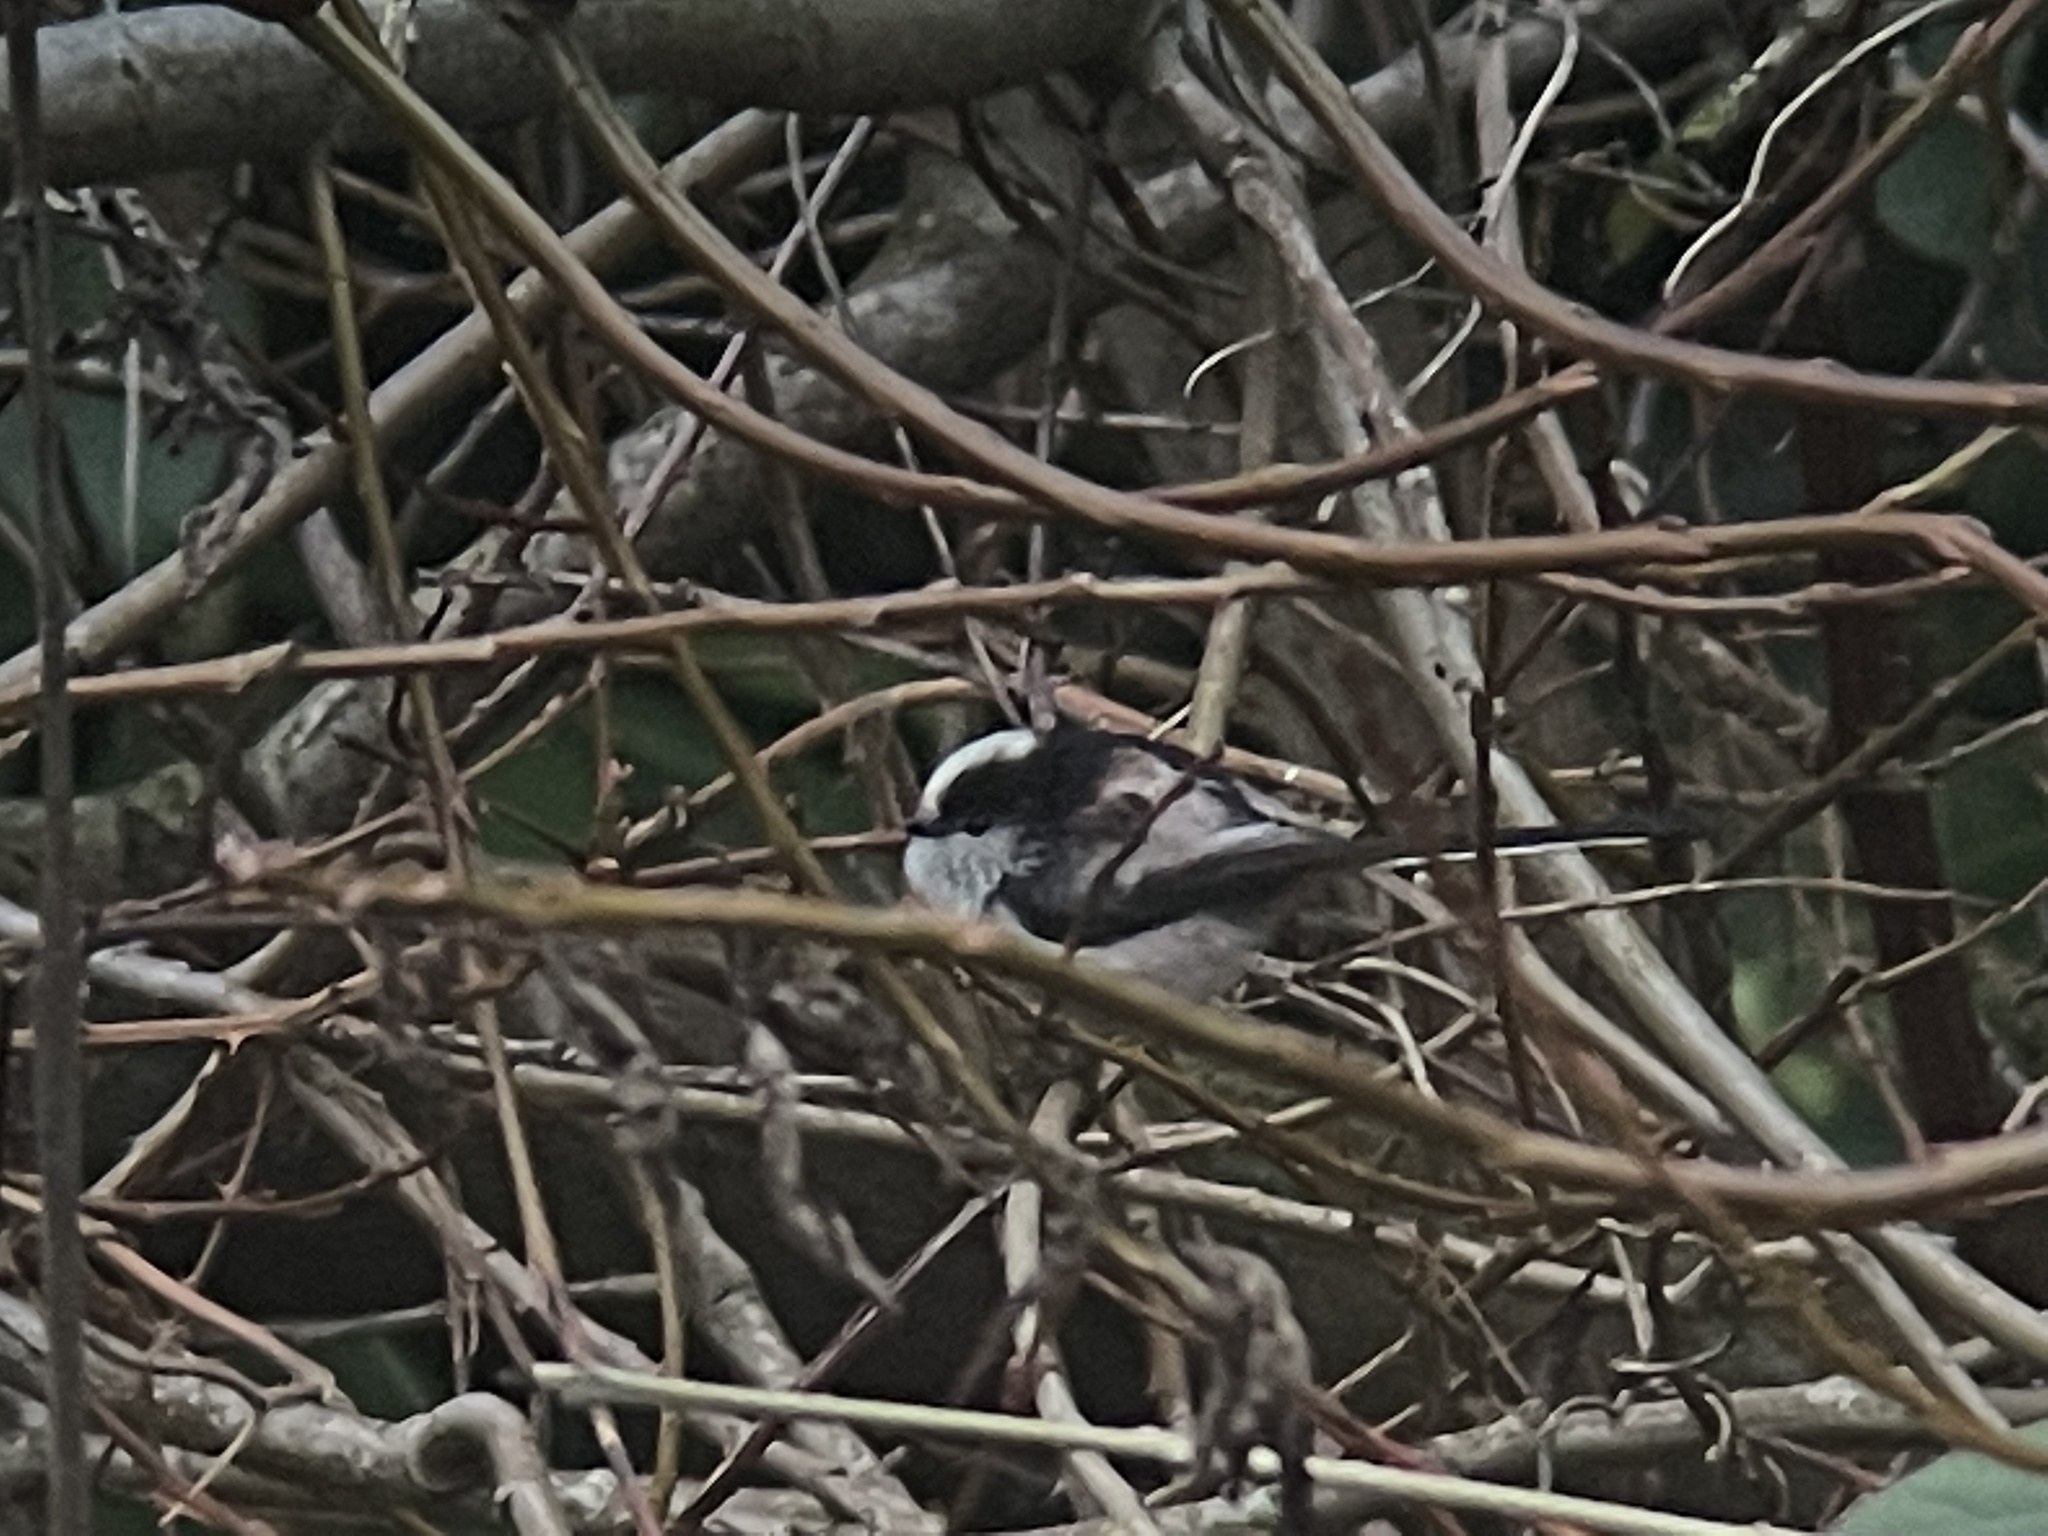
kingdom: Animalia
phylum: Chordata
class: Aves
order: Passeriformes
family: Aegithalidae
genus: Aegithalos
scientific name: Aegithalos caudatus
